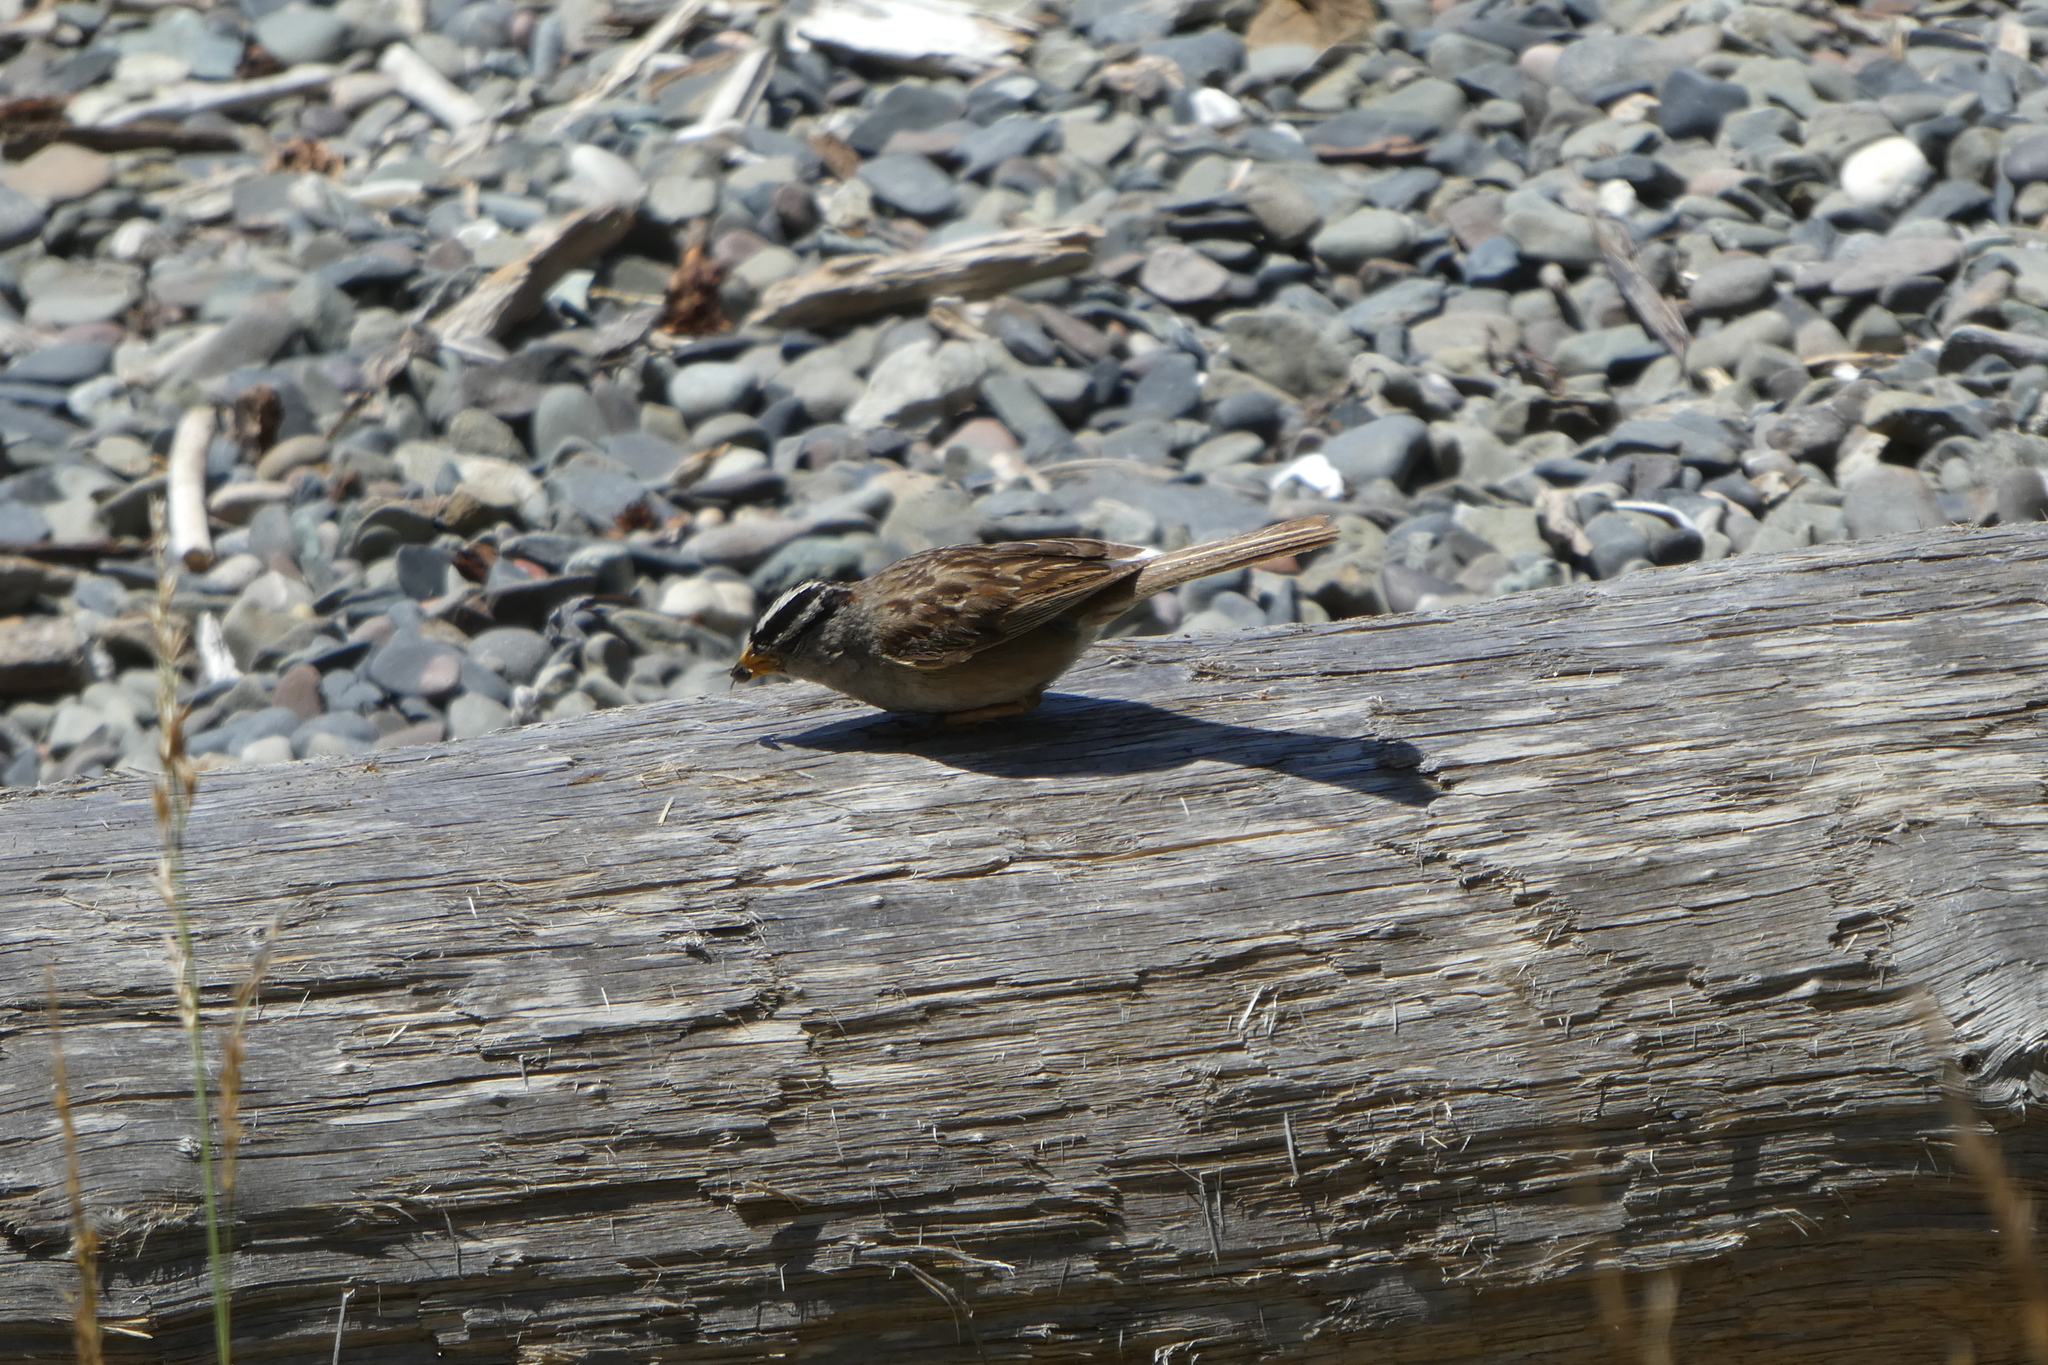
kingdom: Animalia
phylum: Chordata
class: Aves
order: Passeriformes
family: Passerellidae
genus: Zonotrichia
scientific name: Zonotrichia leucophrys
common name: White-crowned sparrow
